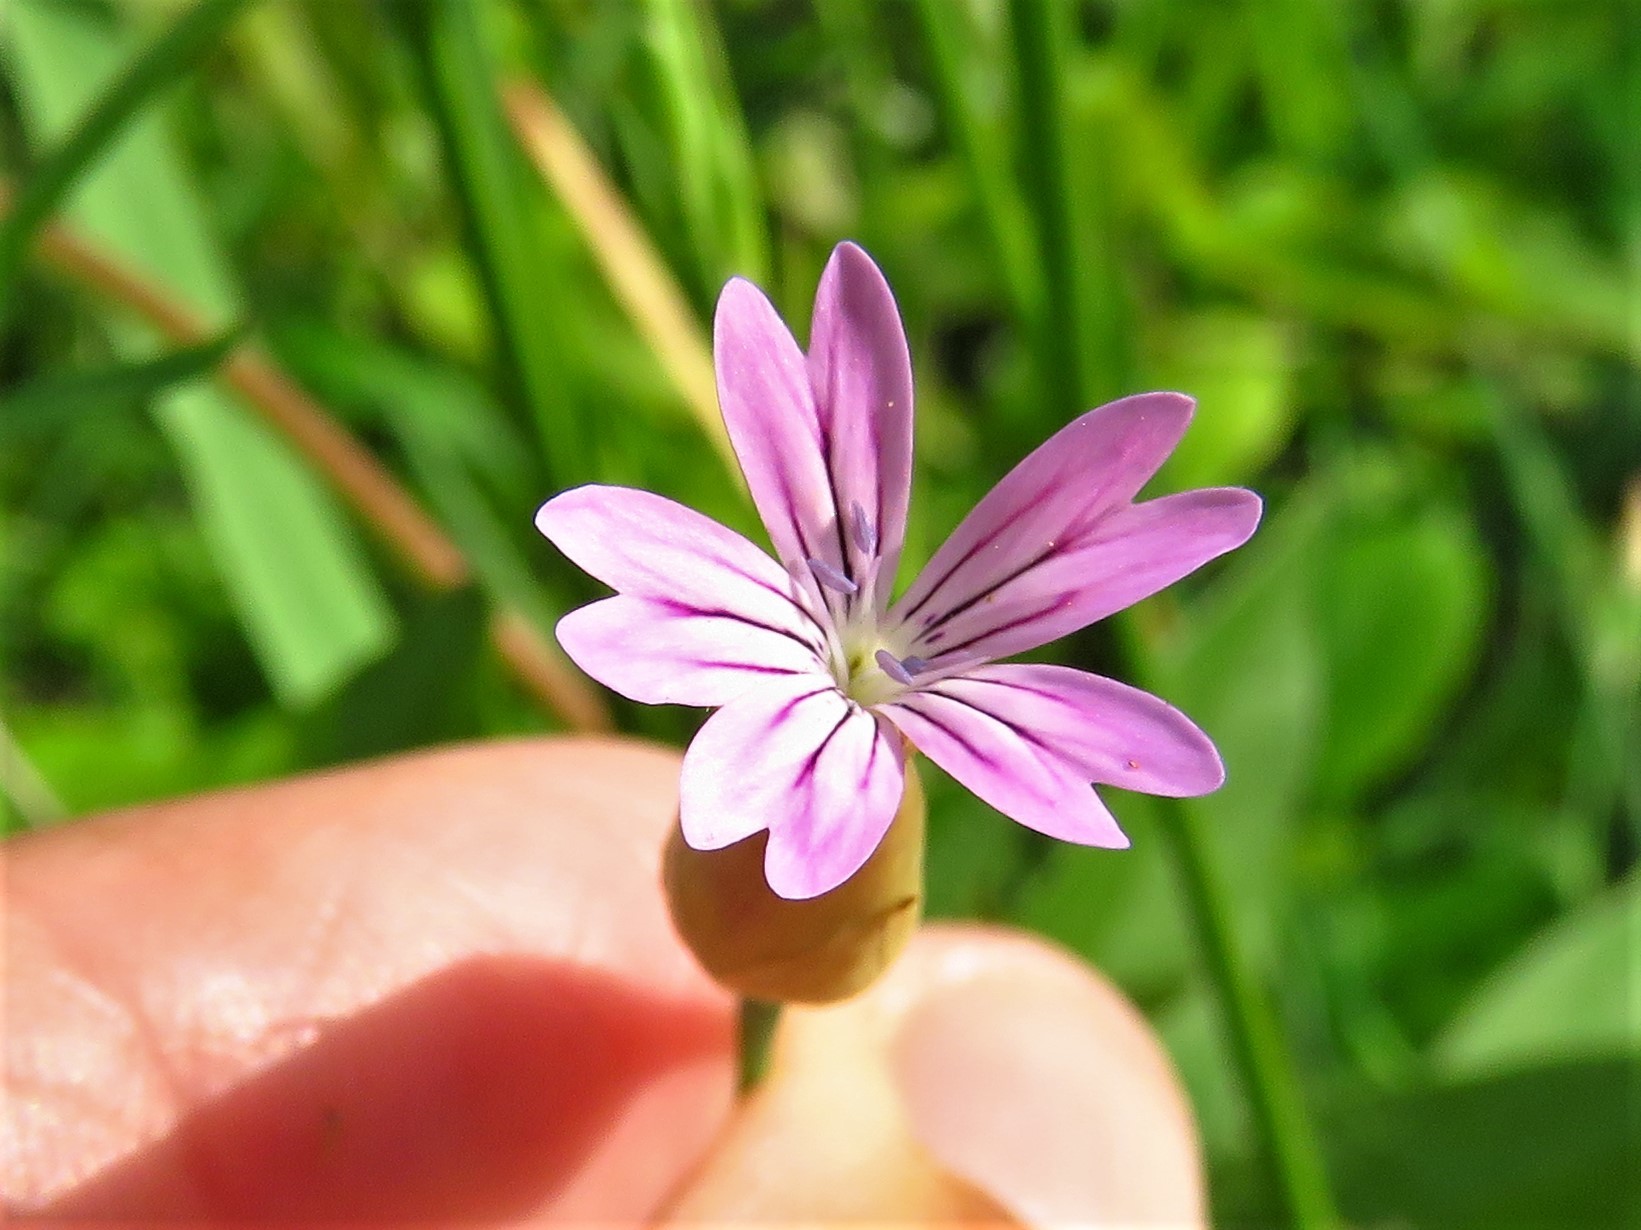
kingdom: Plantae
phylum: Tracheophyta
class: Magnoliopsida
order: Caryophyllales
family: Caryophyllaceae
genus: Petrorhagia
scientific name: Petrorhagia dubia
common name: Hairypink
